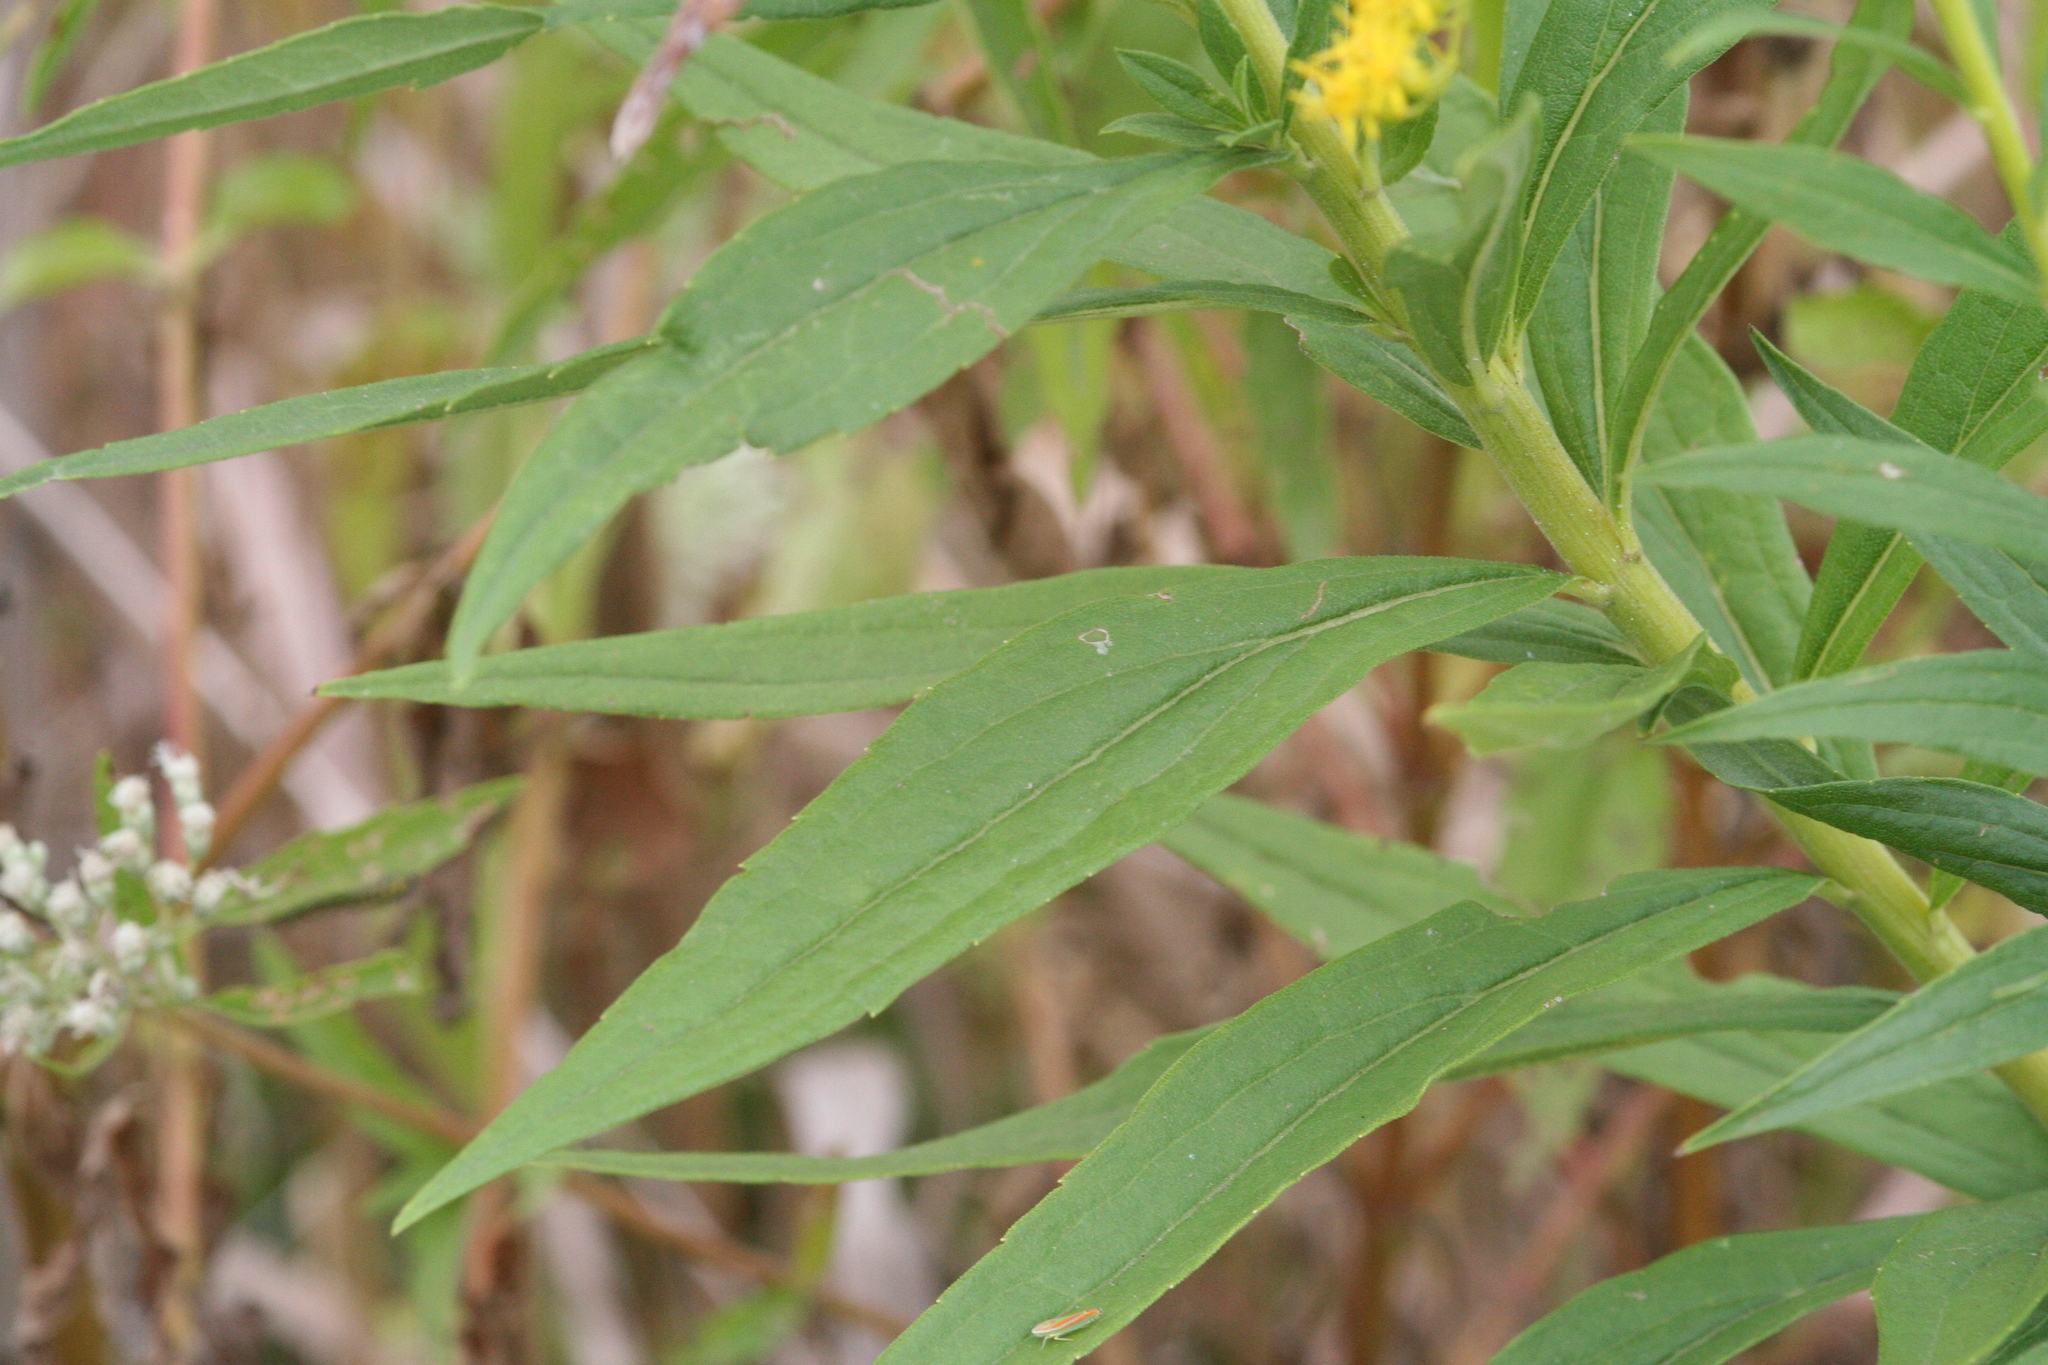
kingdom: Plantae
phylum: Tracheophyta
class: Magnoliopsida
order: Asterales
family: Asteraceae
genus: Solidago
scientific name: Solidago altissima
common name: Late goldenrod
